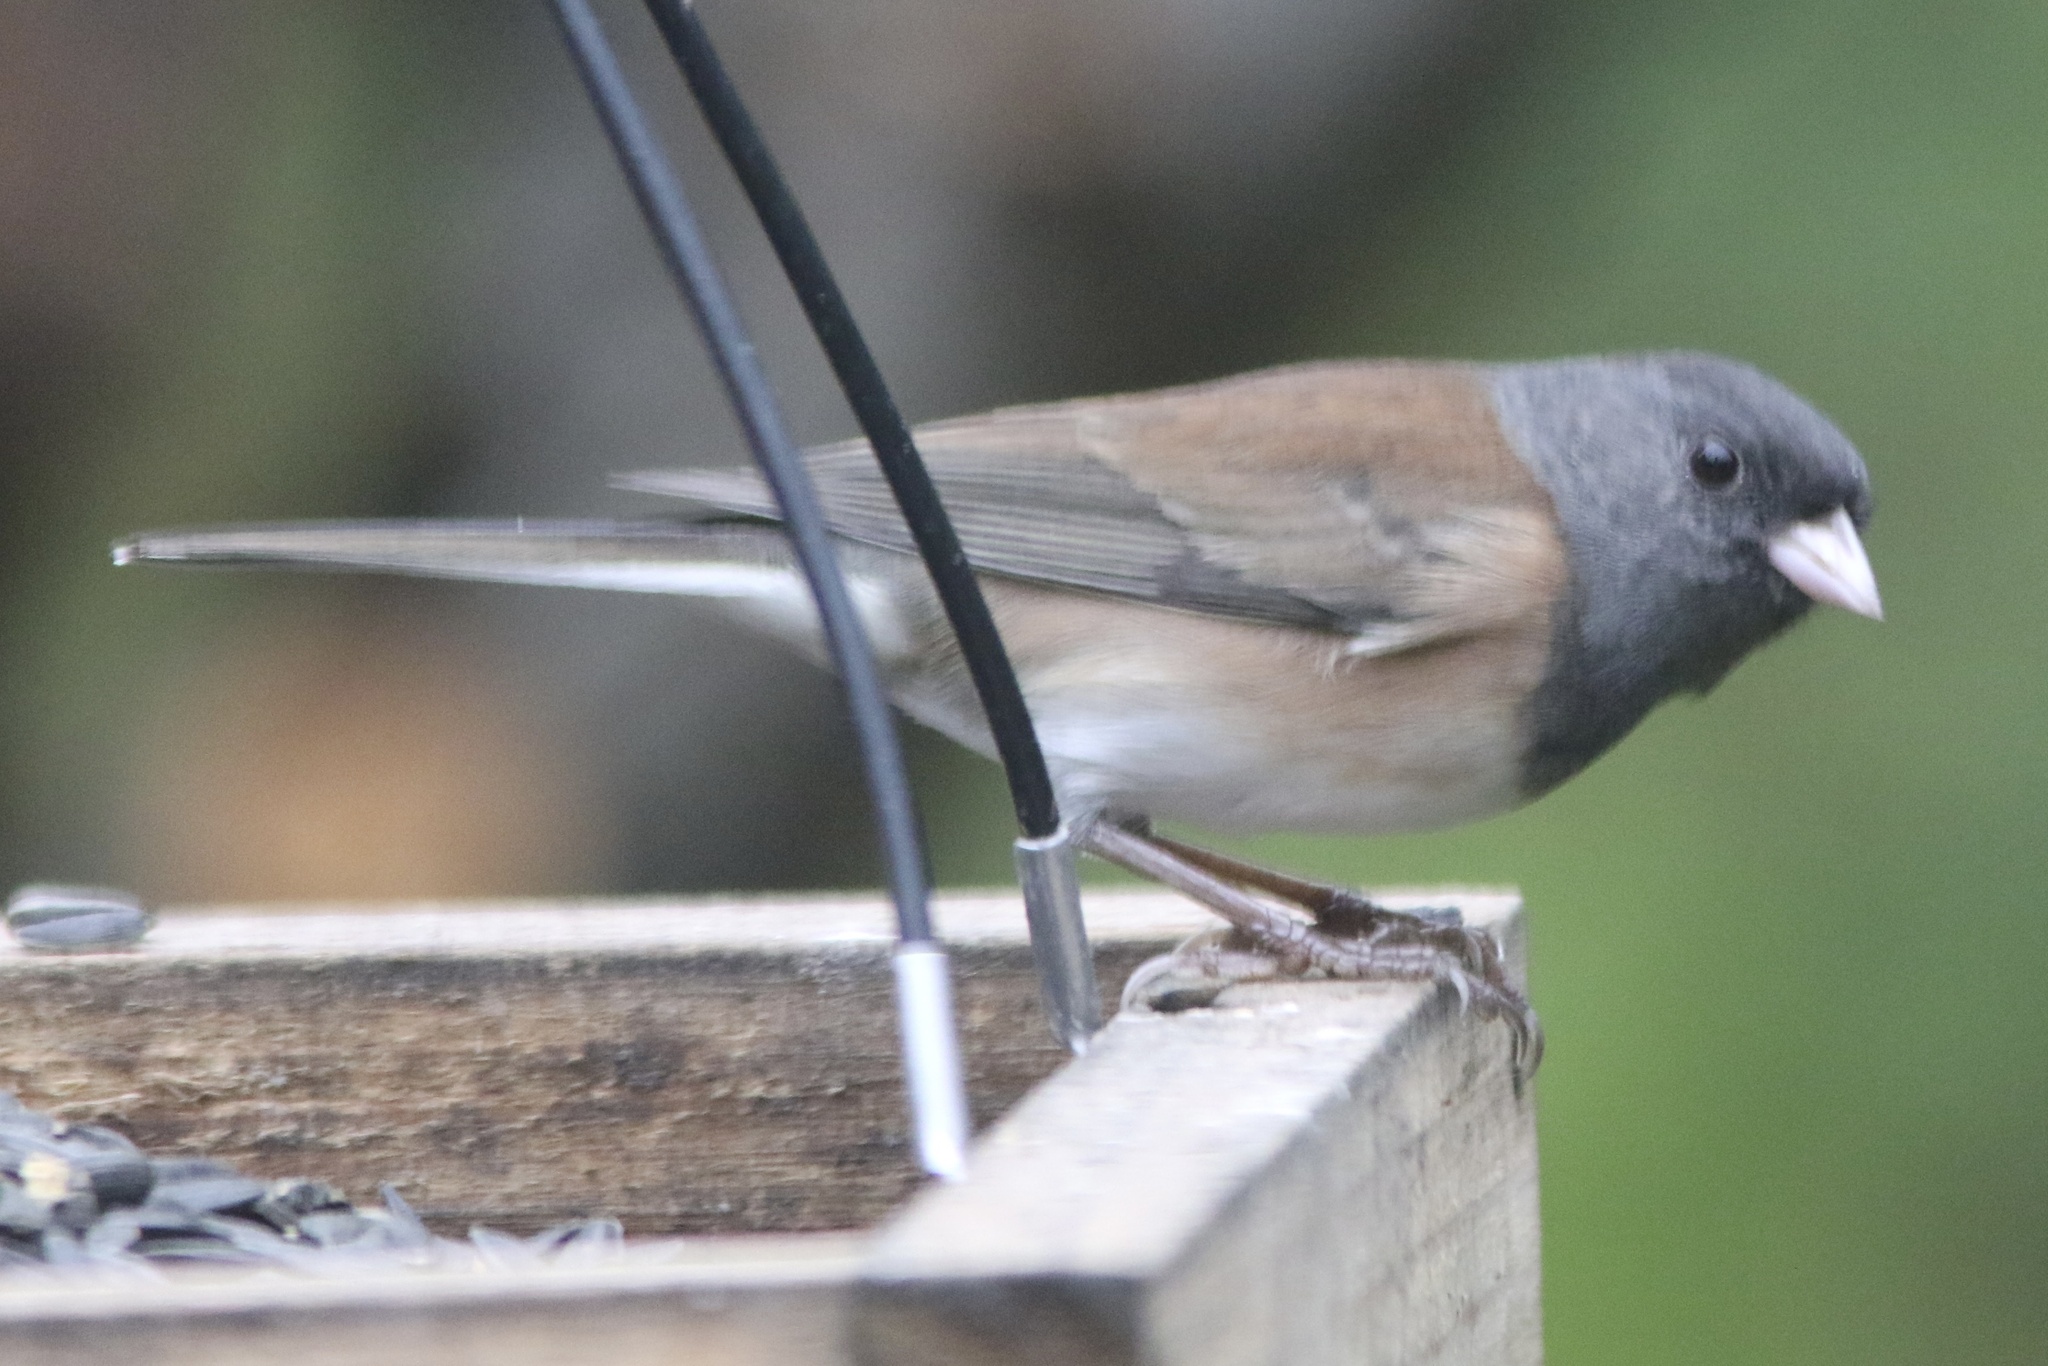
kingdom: Animalia
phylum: Chordata
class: Aves
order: Passeriformes
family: Passerellidae
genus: Junco
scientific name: Junco hyemalis
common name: Dark-eyed junco
